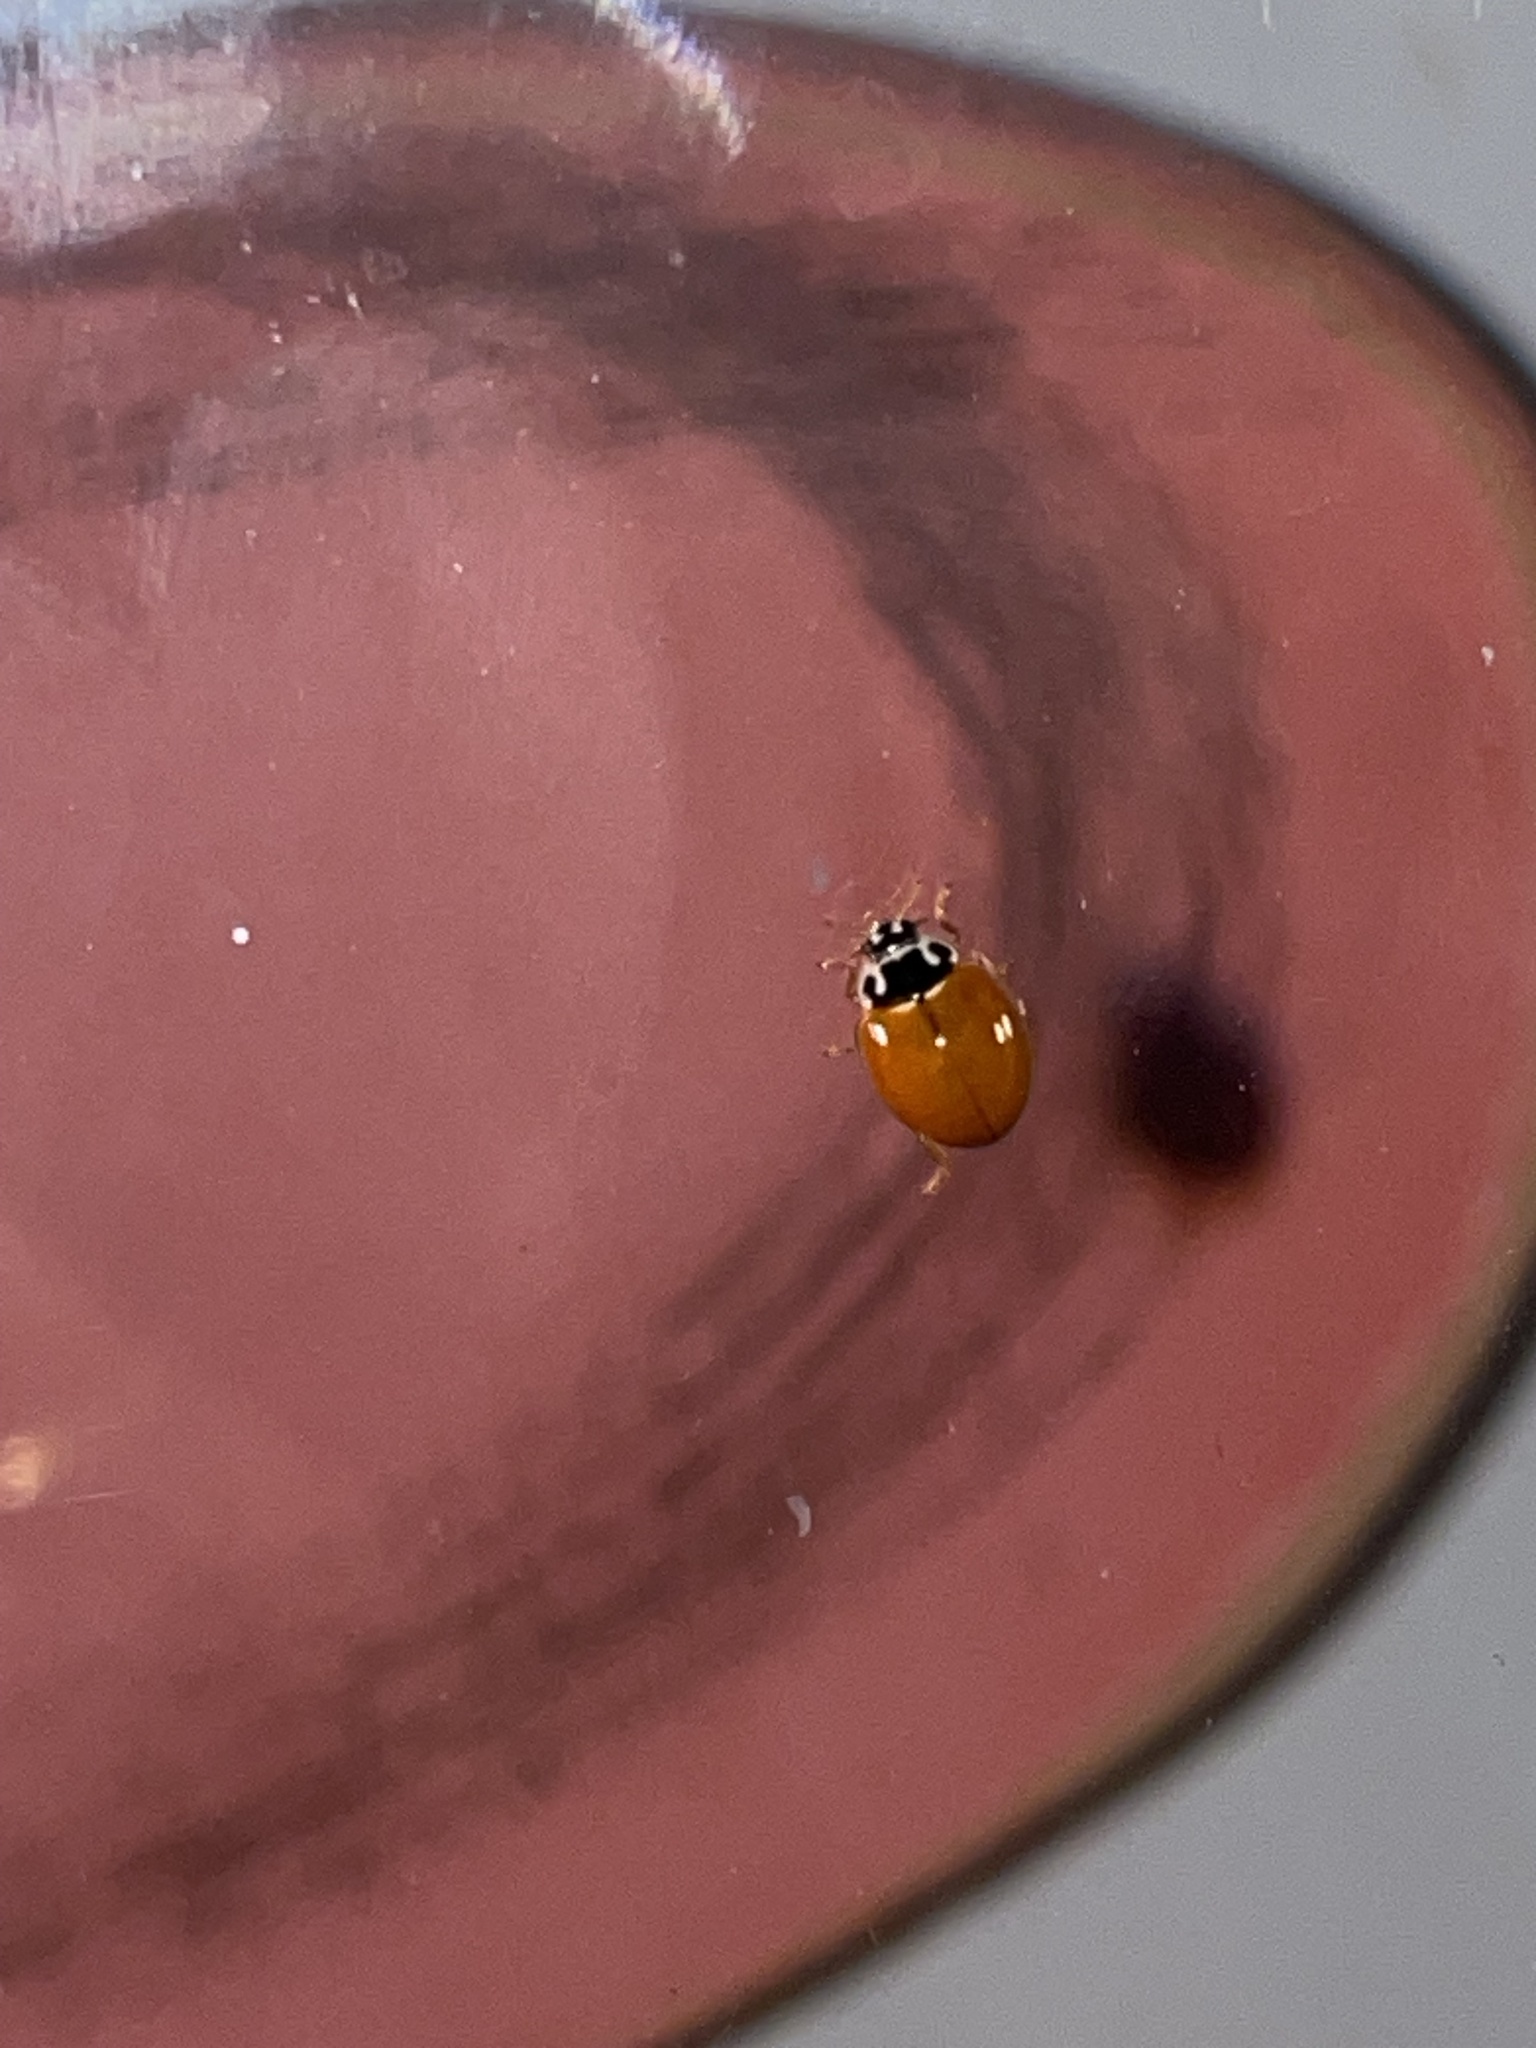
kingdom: Animalia
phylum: Arthropoda
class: Insecta
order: Coleoptera
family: Coccinellidae
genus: Cycloneda
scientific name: Cycloneda munda
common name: Polished lady beetle
